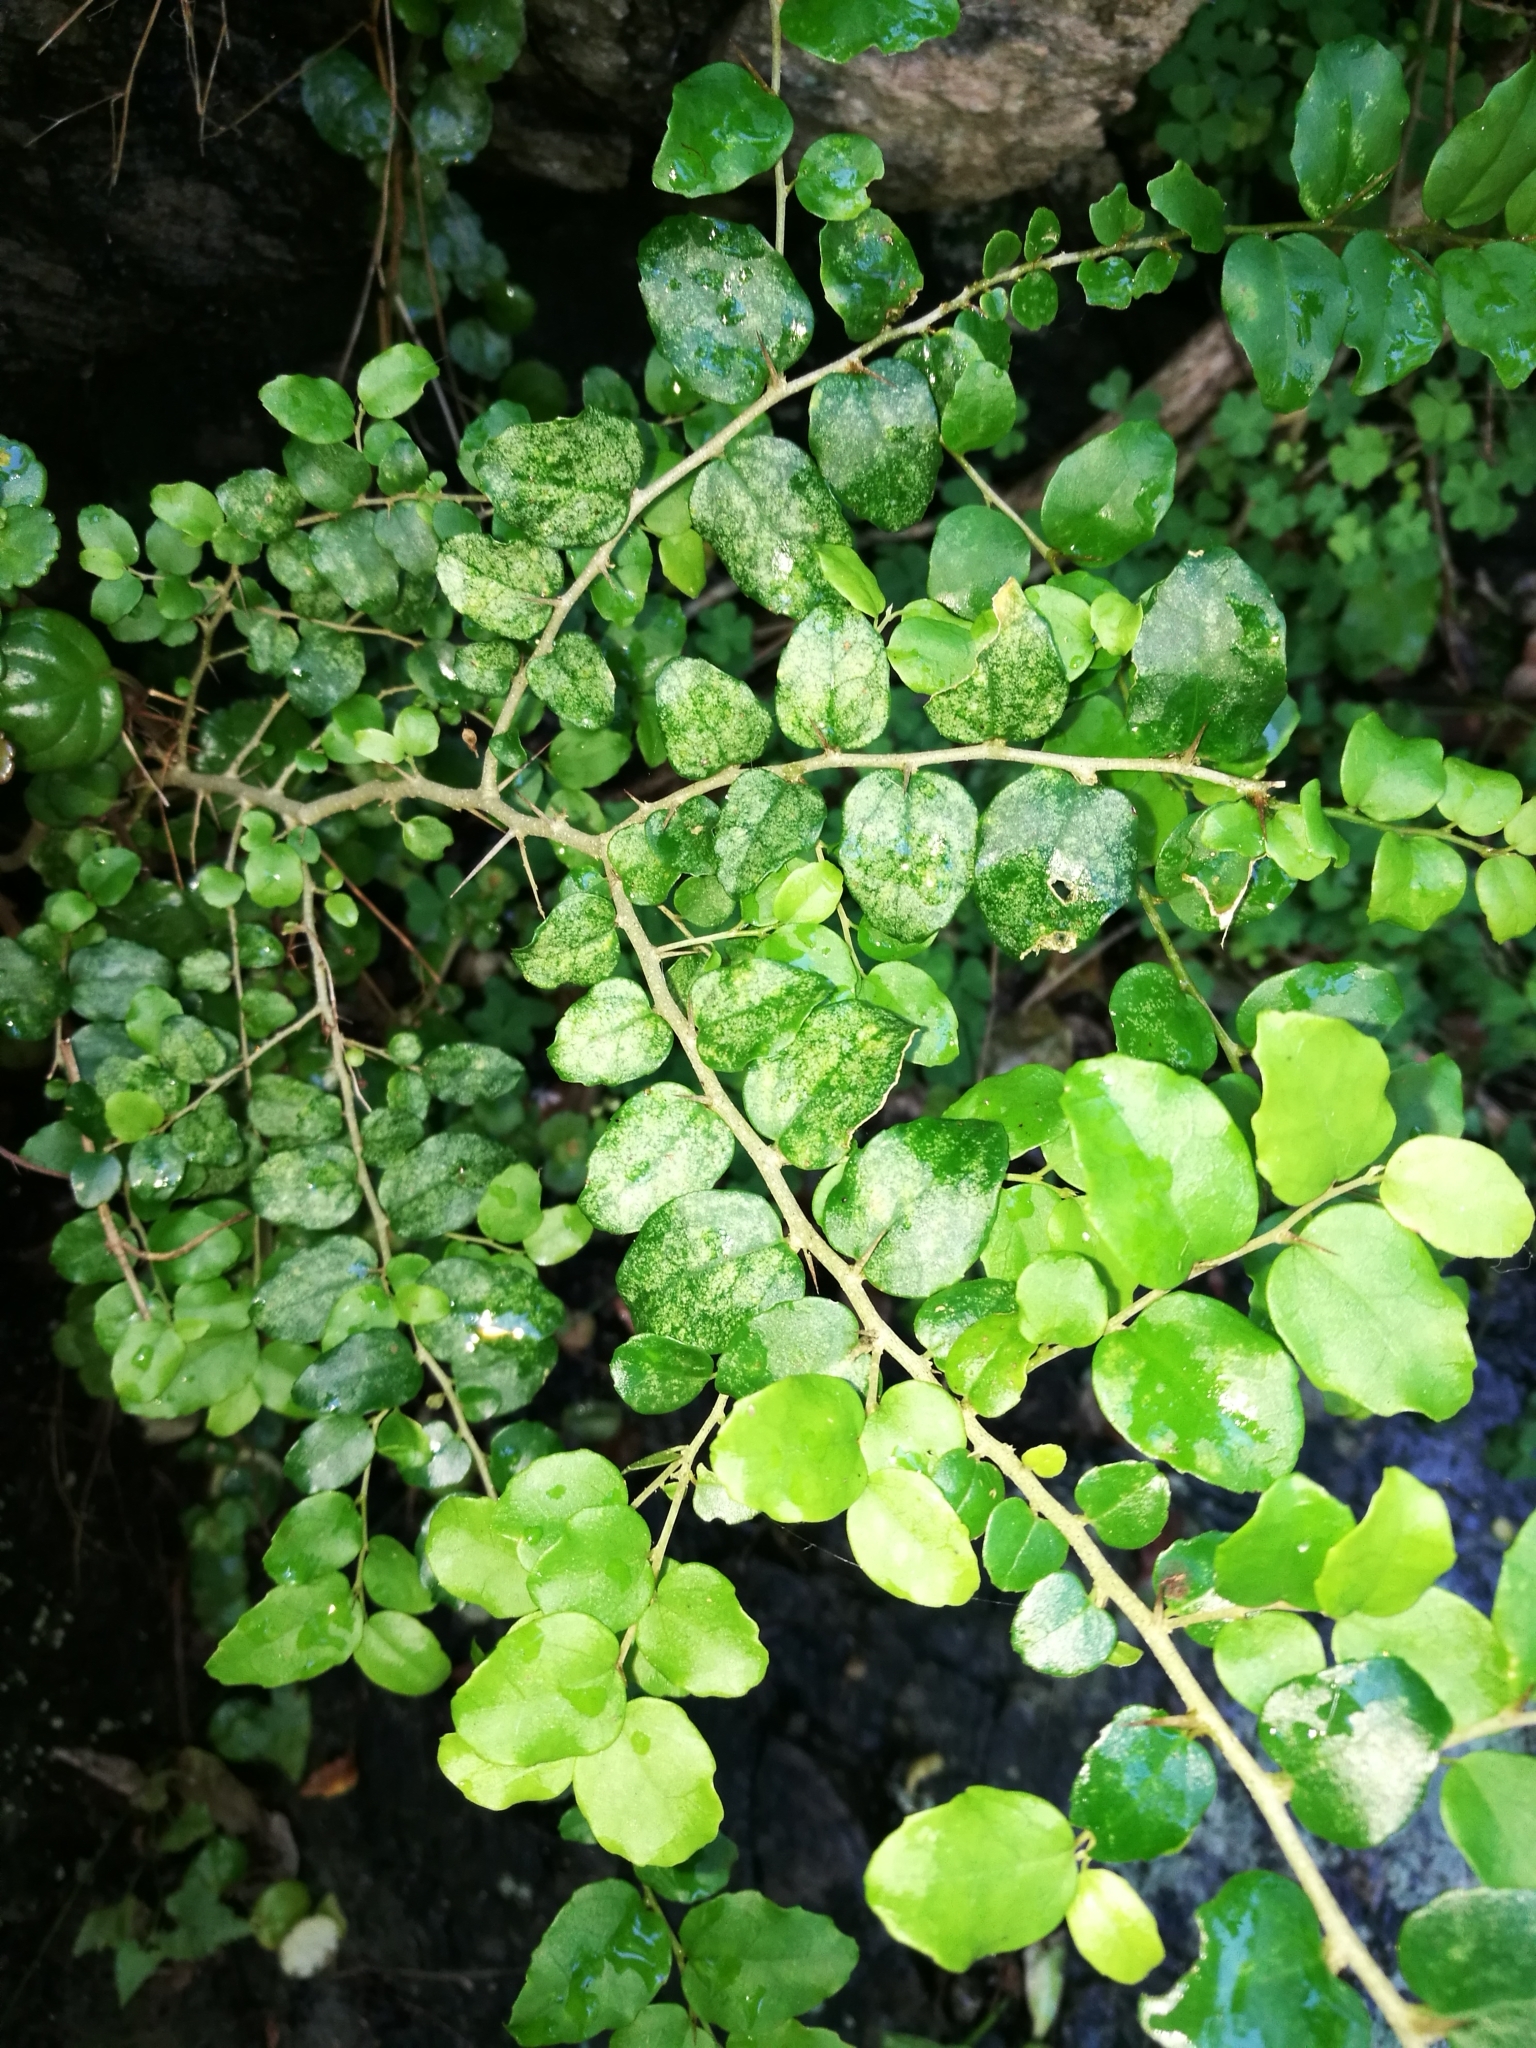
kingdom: Plantae
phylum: Tracheophyta
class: Magnoliopsida
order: Malpighiales
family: Salicaceae
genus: Dovyalis
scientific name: Dovyalis rhamnoides
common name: Sourberry
